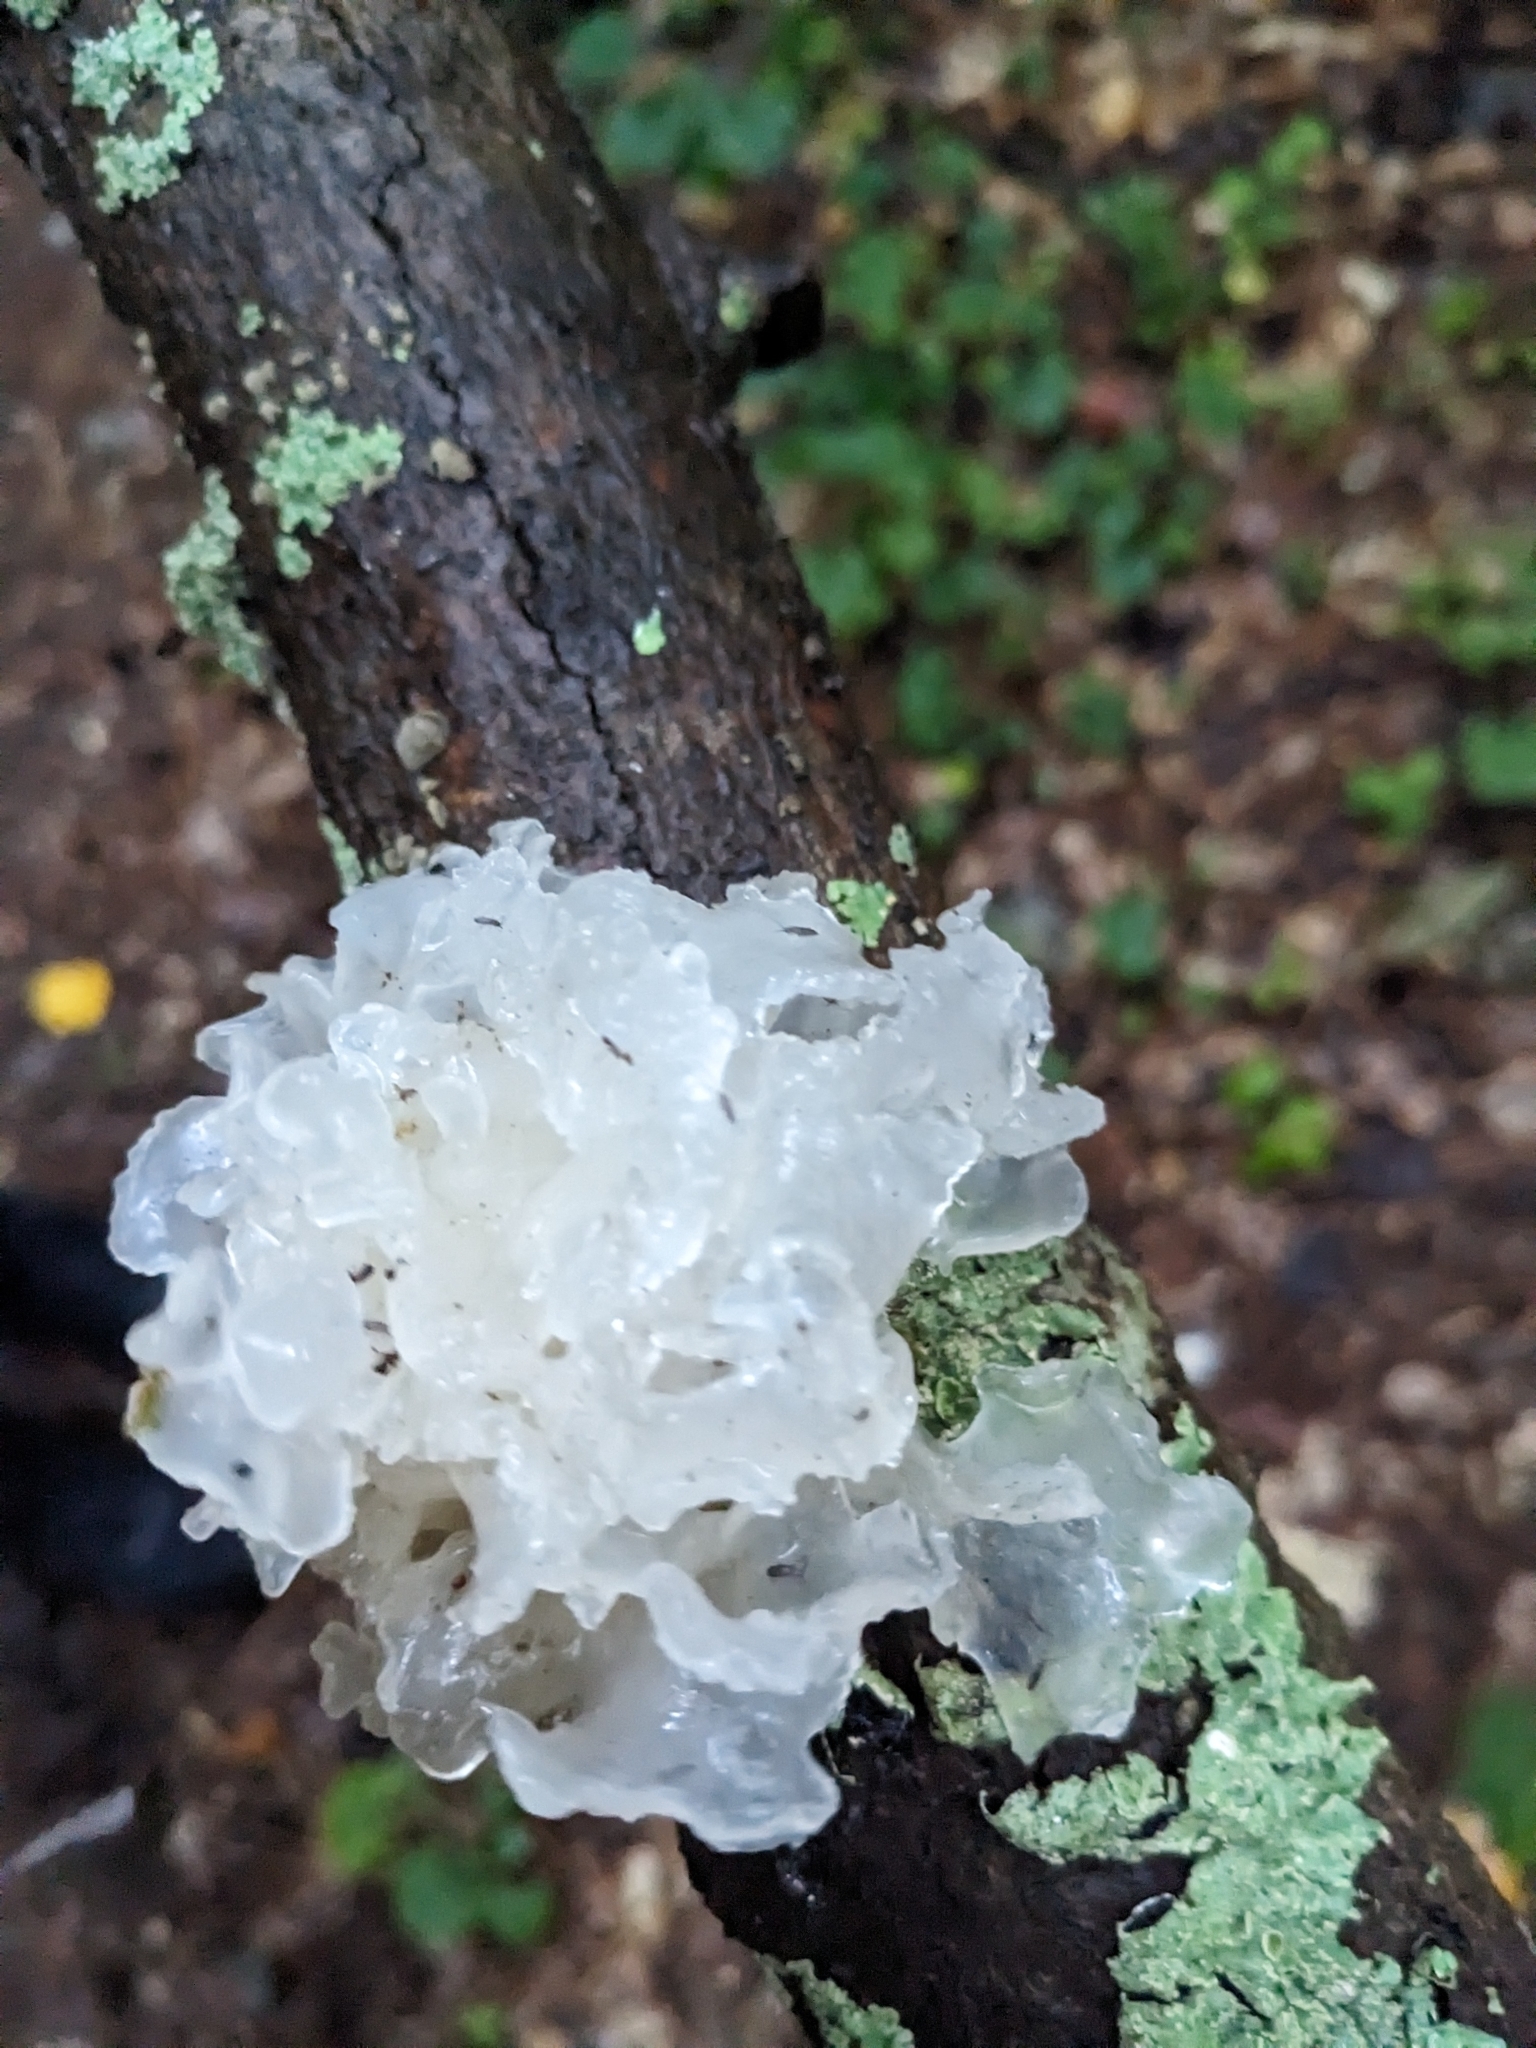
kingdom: Fungi
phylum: Basidiomycota
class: Tremellomycetes
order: Tremellales
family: Tremellaceae
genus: Tremella
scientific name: Tremella fuciformis
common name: Snow fungus
